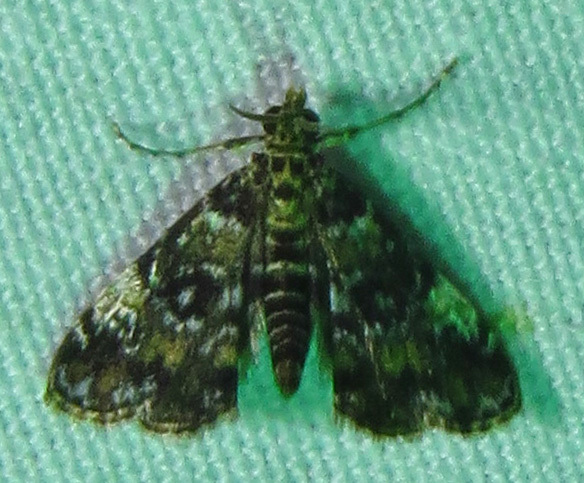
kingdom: Animalia
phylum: Arthropoda
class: Insecta
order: Lepidoptera
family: Crambidae
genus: Elophila
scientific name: Elophila obliteralis
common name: Waterlily leafcutter moth
